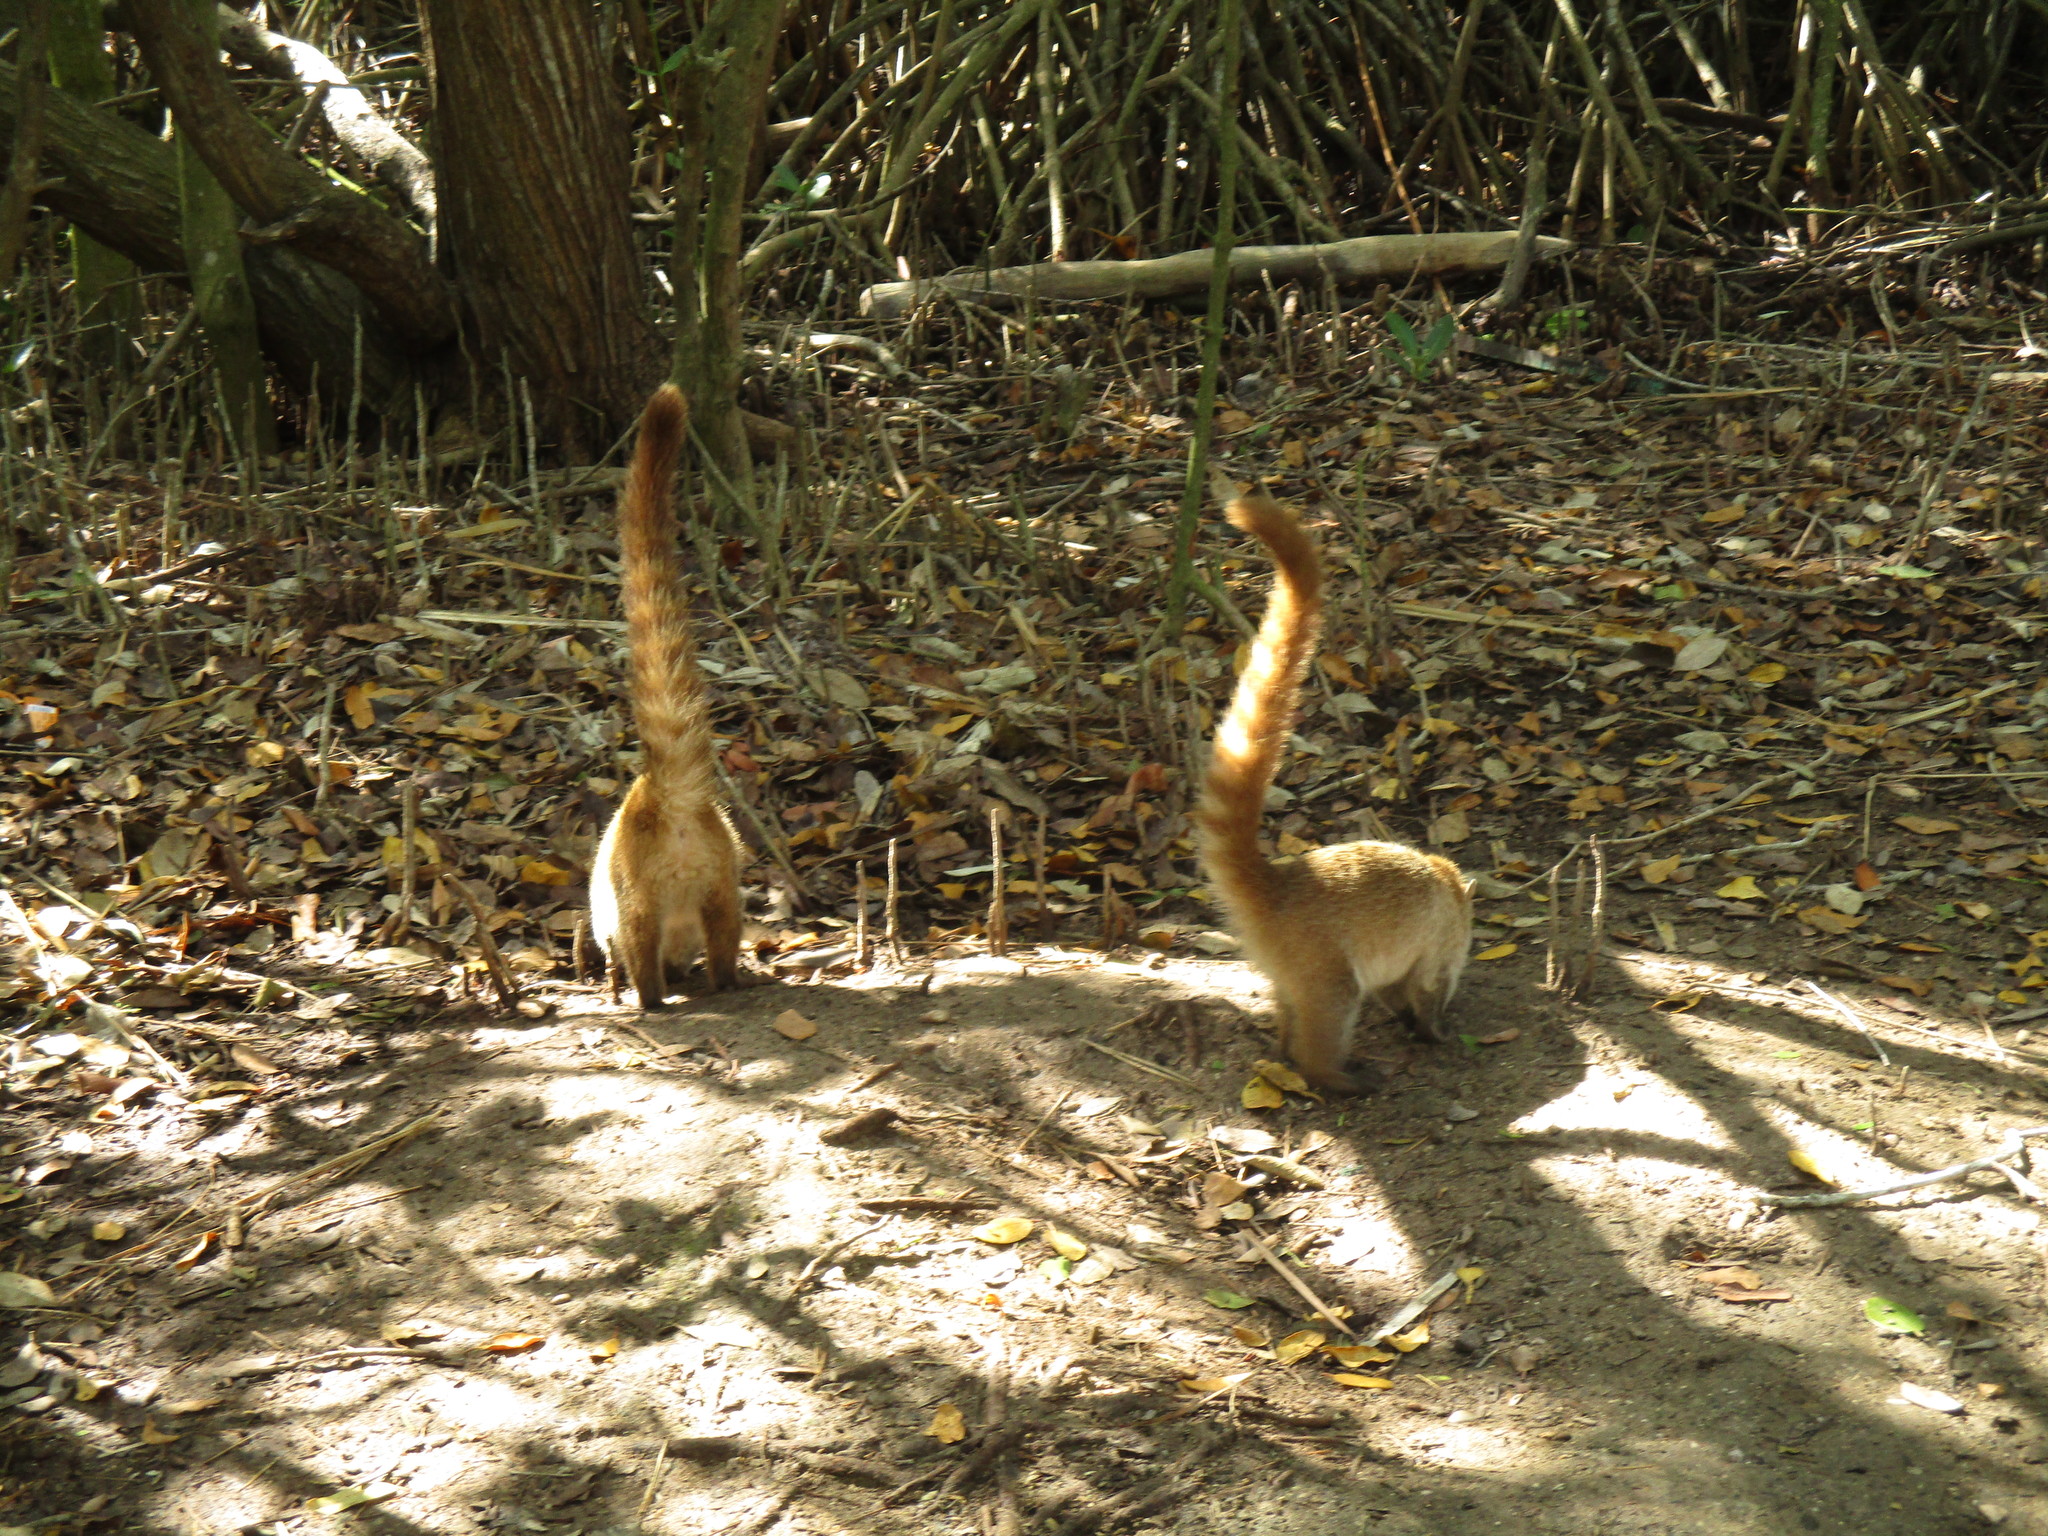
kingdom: Animalia
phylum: Chordata
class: Mammalia
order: Carnivora
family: Procyonidae
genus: Nasua
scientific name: Nasua narica
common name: White-nosed coati
